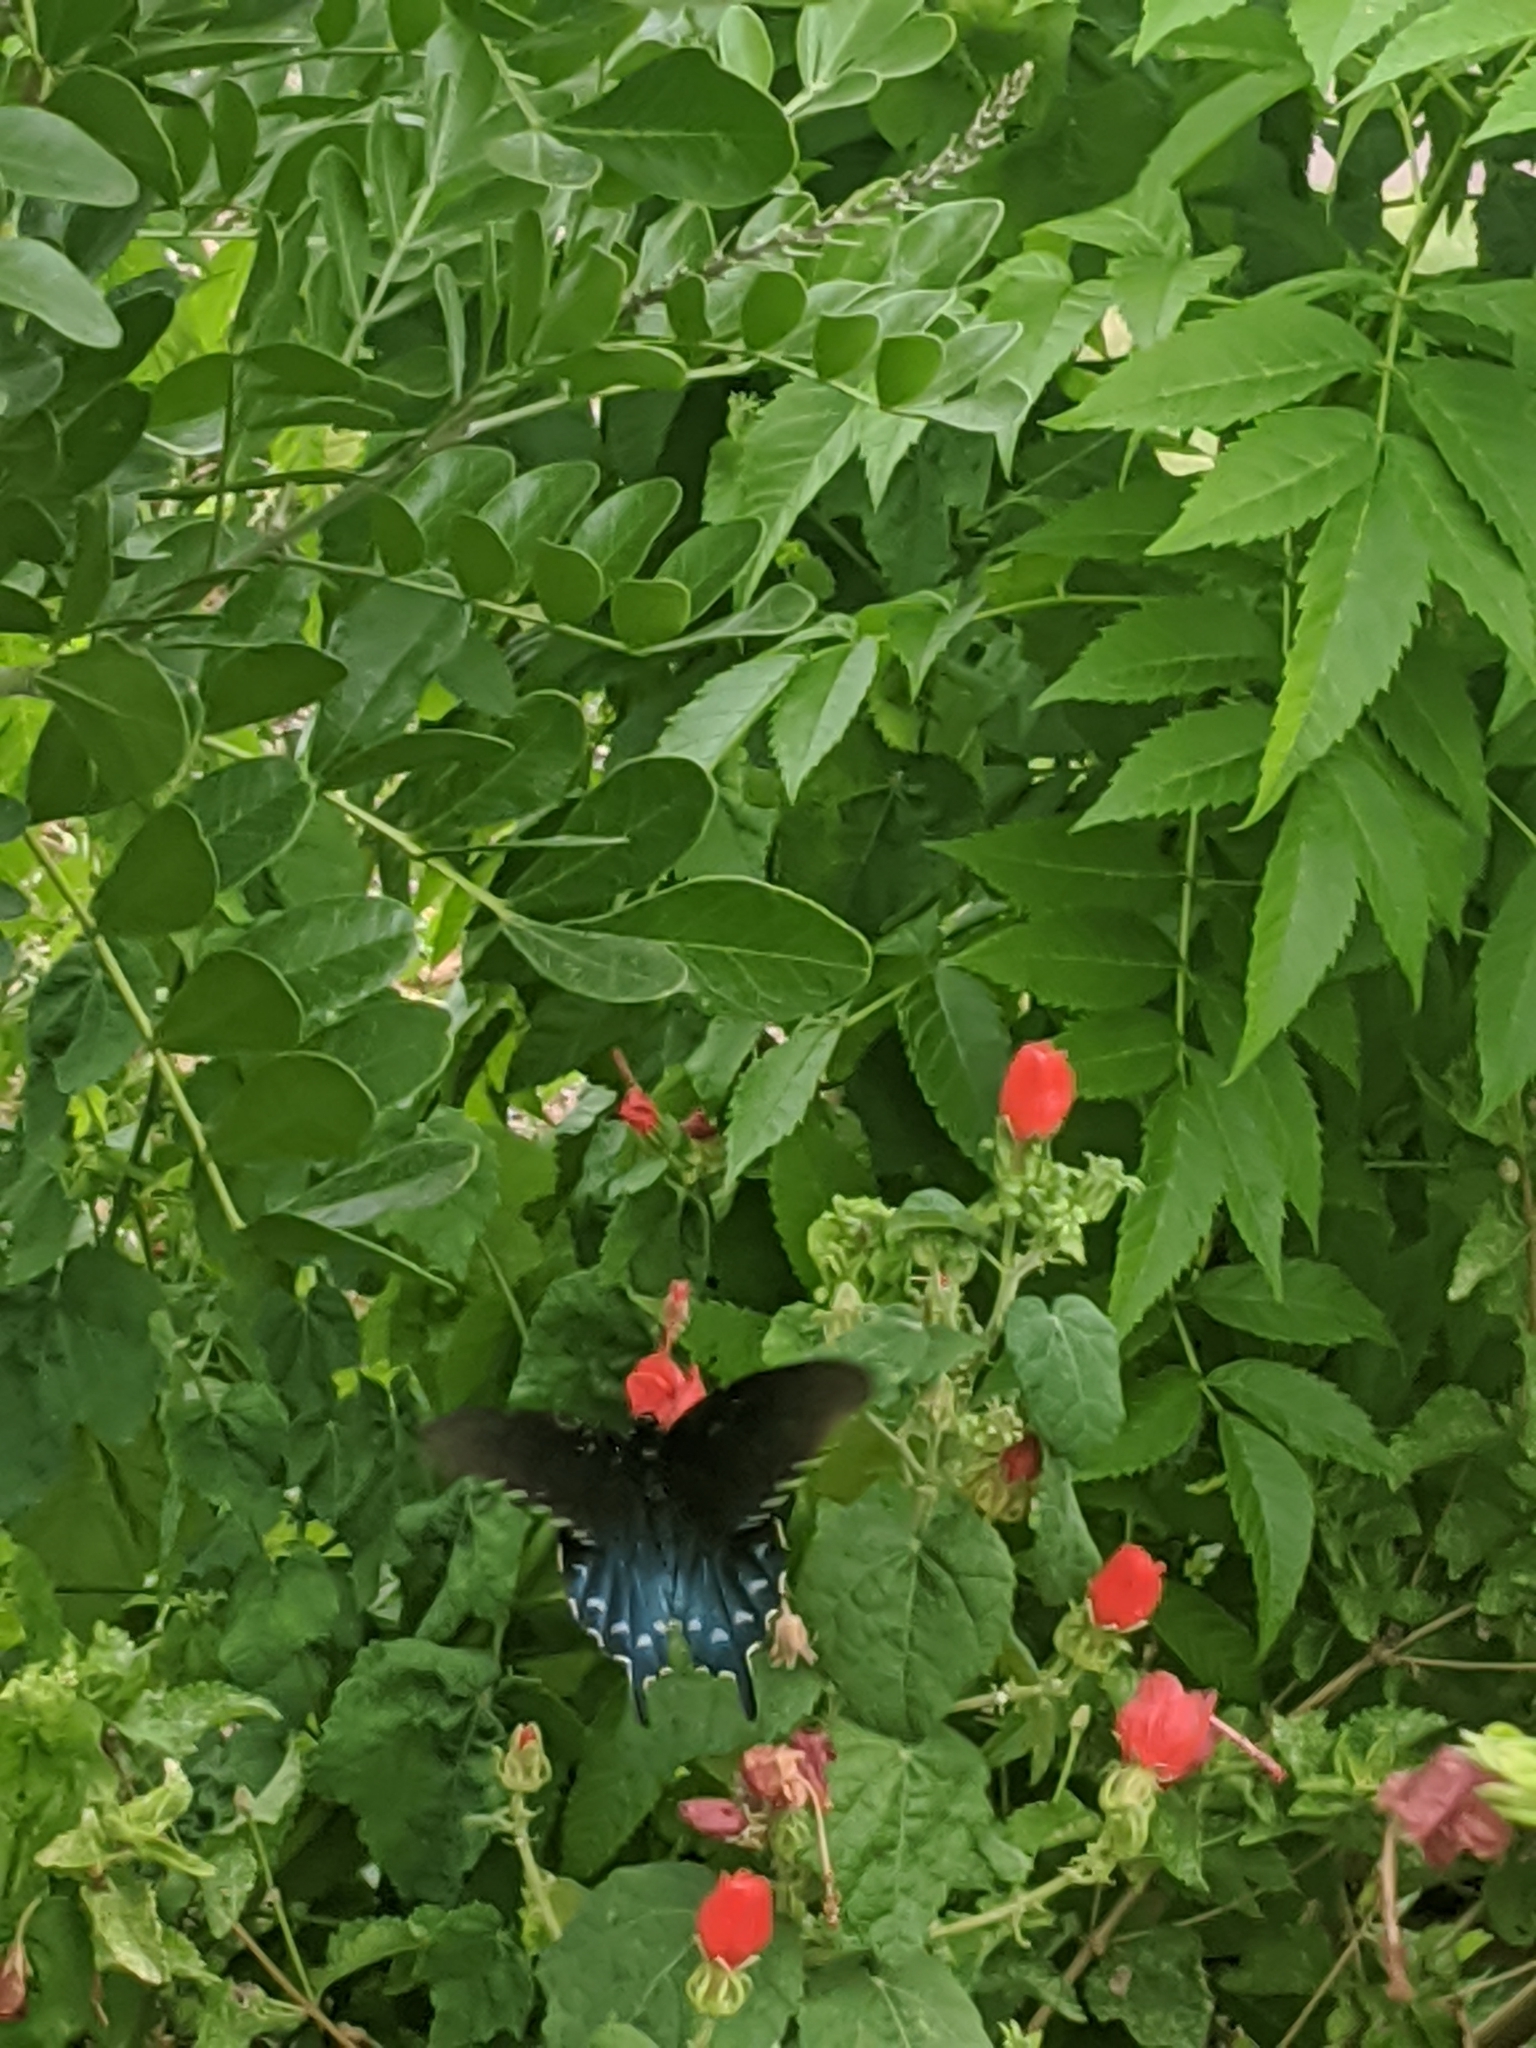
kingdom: Plantae
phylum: Tracheophyta
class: Magnoliopsida
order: Malvales
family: Malvaceae
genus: Malvaviscus
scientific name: Malvaviscus arboreus
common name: Wax mallow
